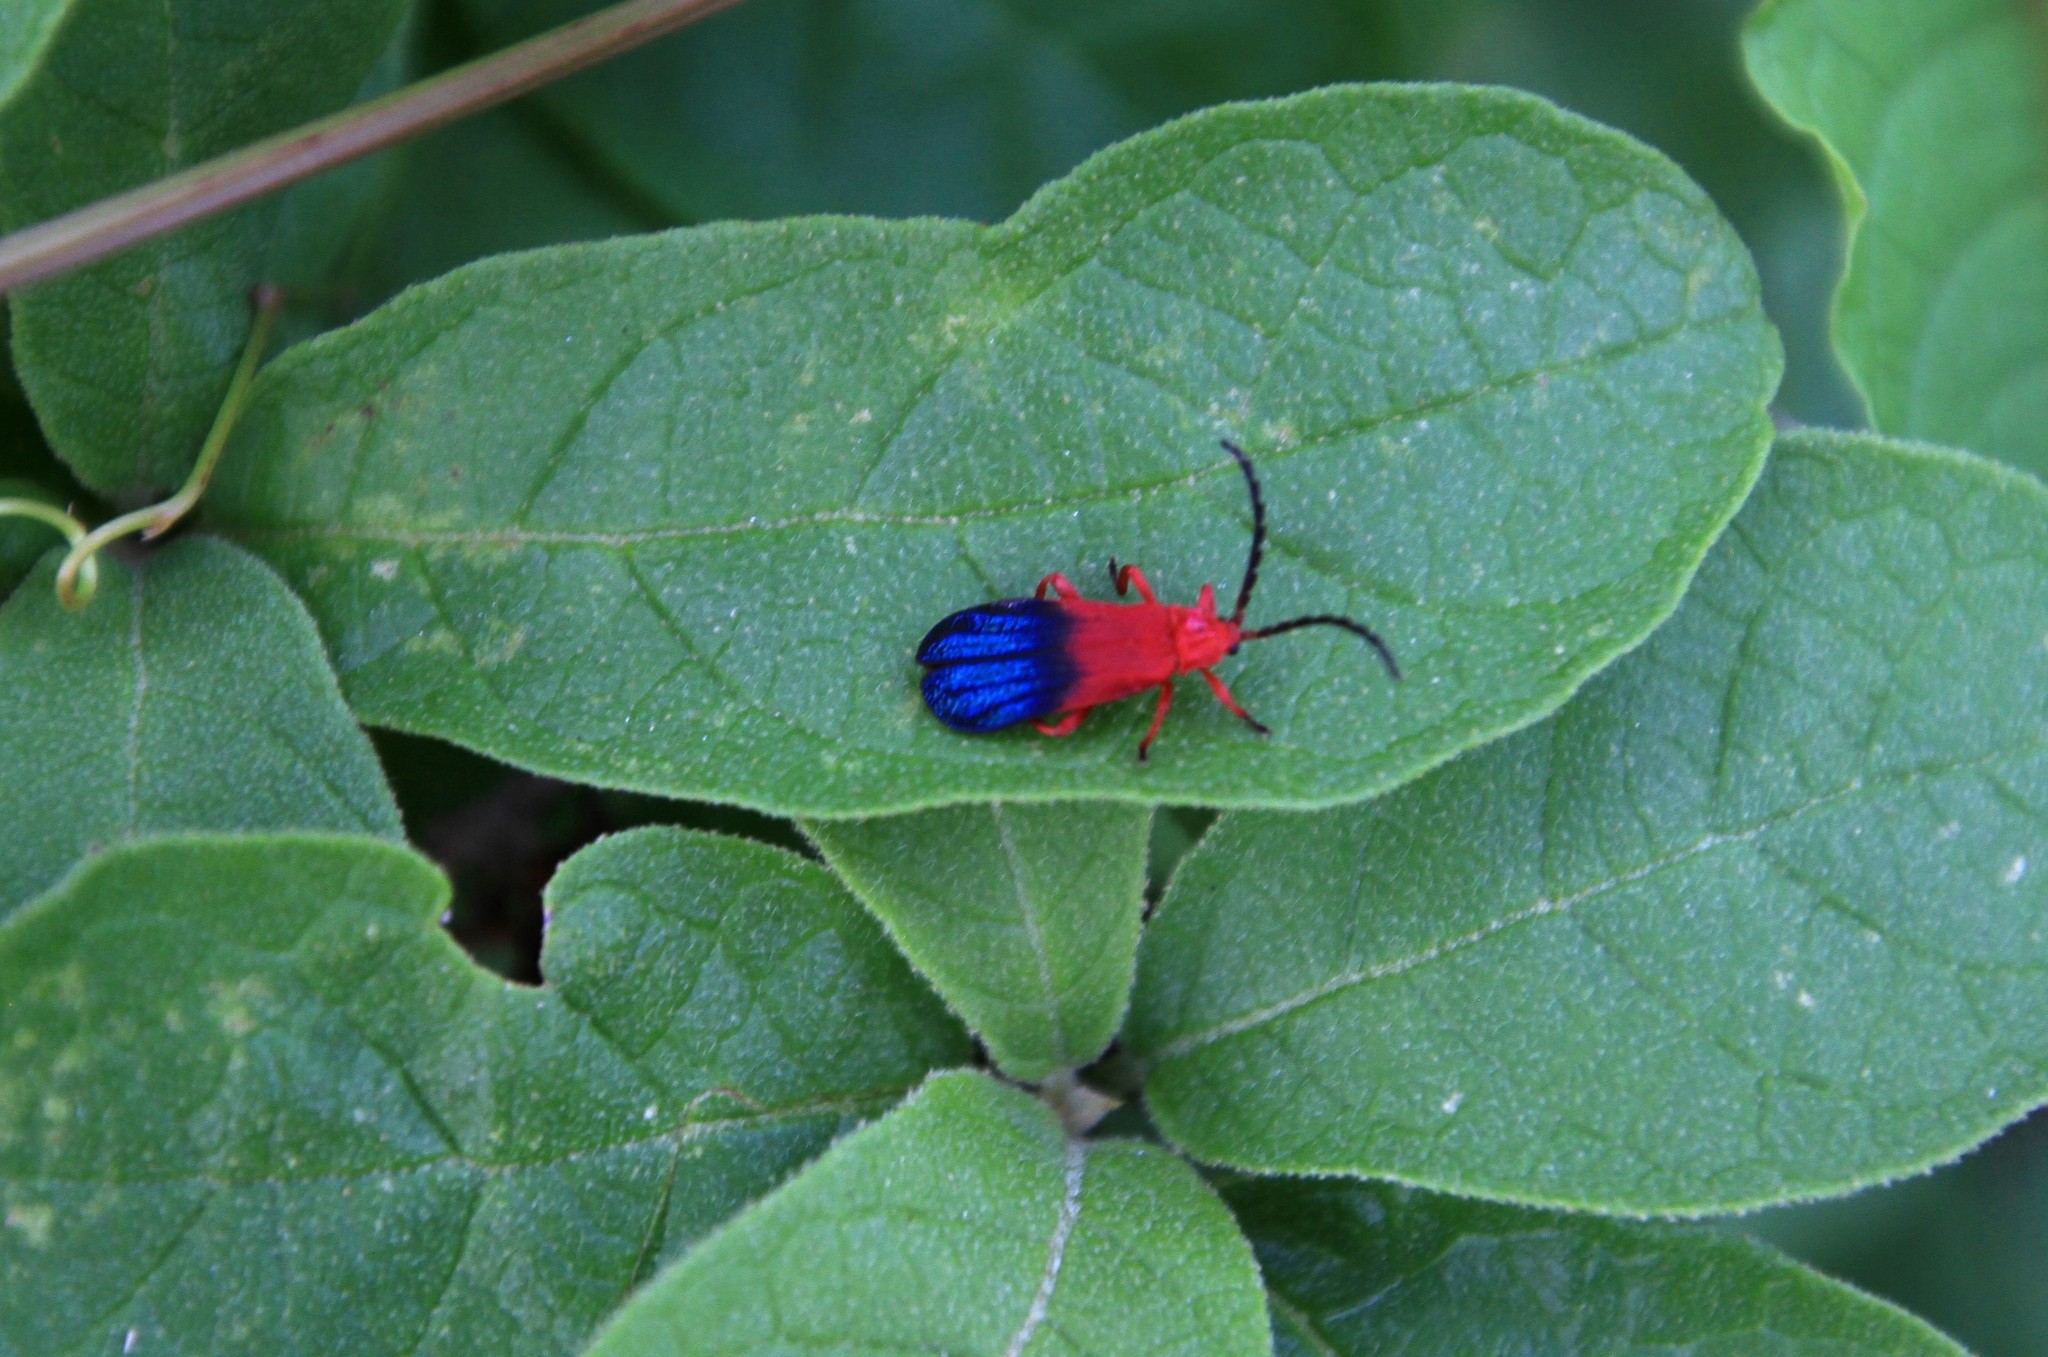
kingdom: Animalia
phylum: Arthropoda
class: Insecta
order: Coleoptera
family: Lycidae
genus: Thonalmus
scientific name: Thonalmus bicolor
